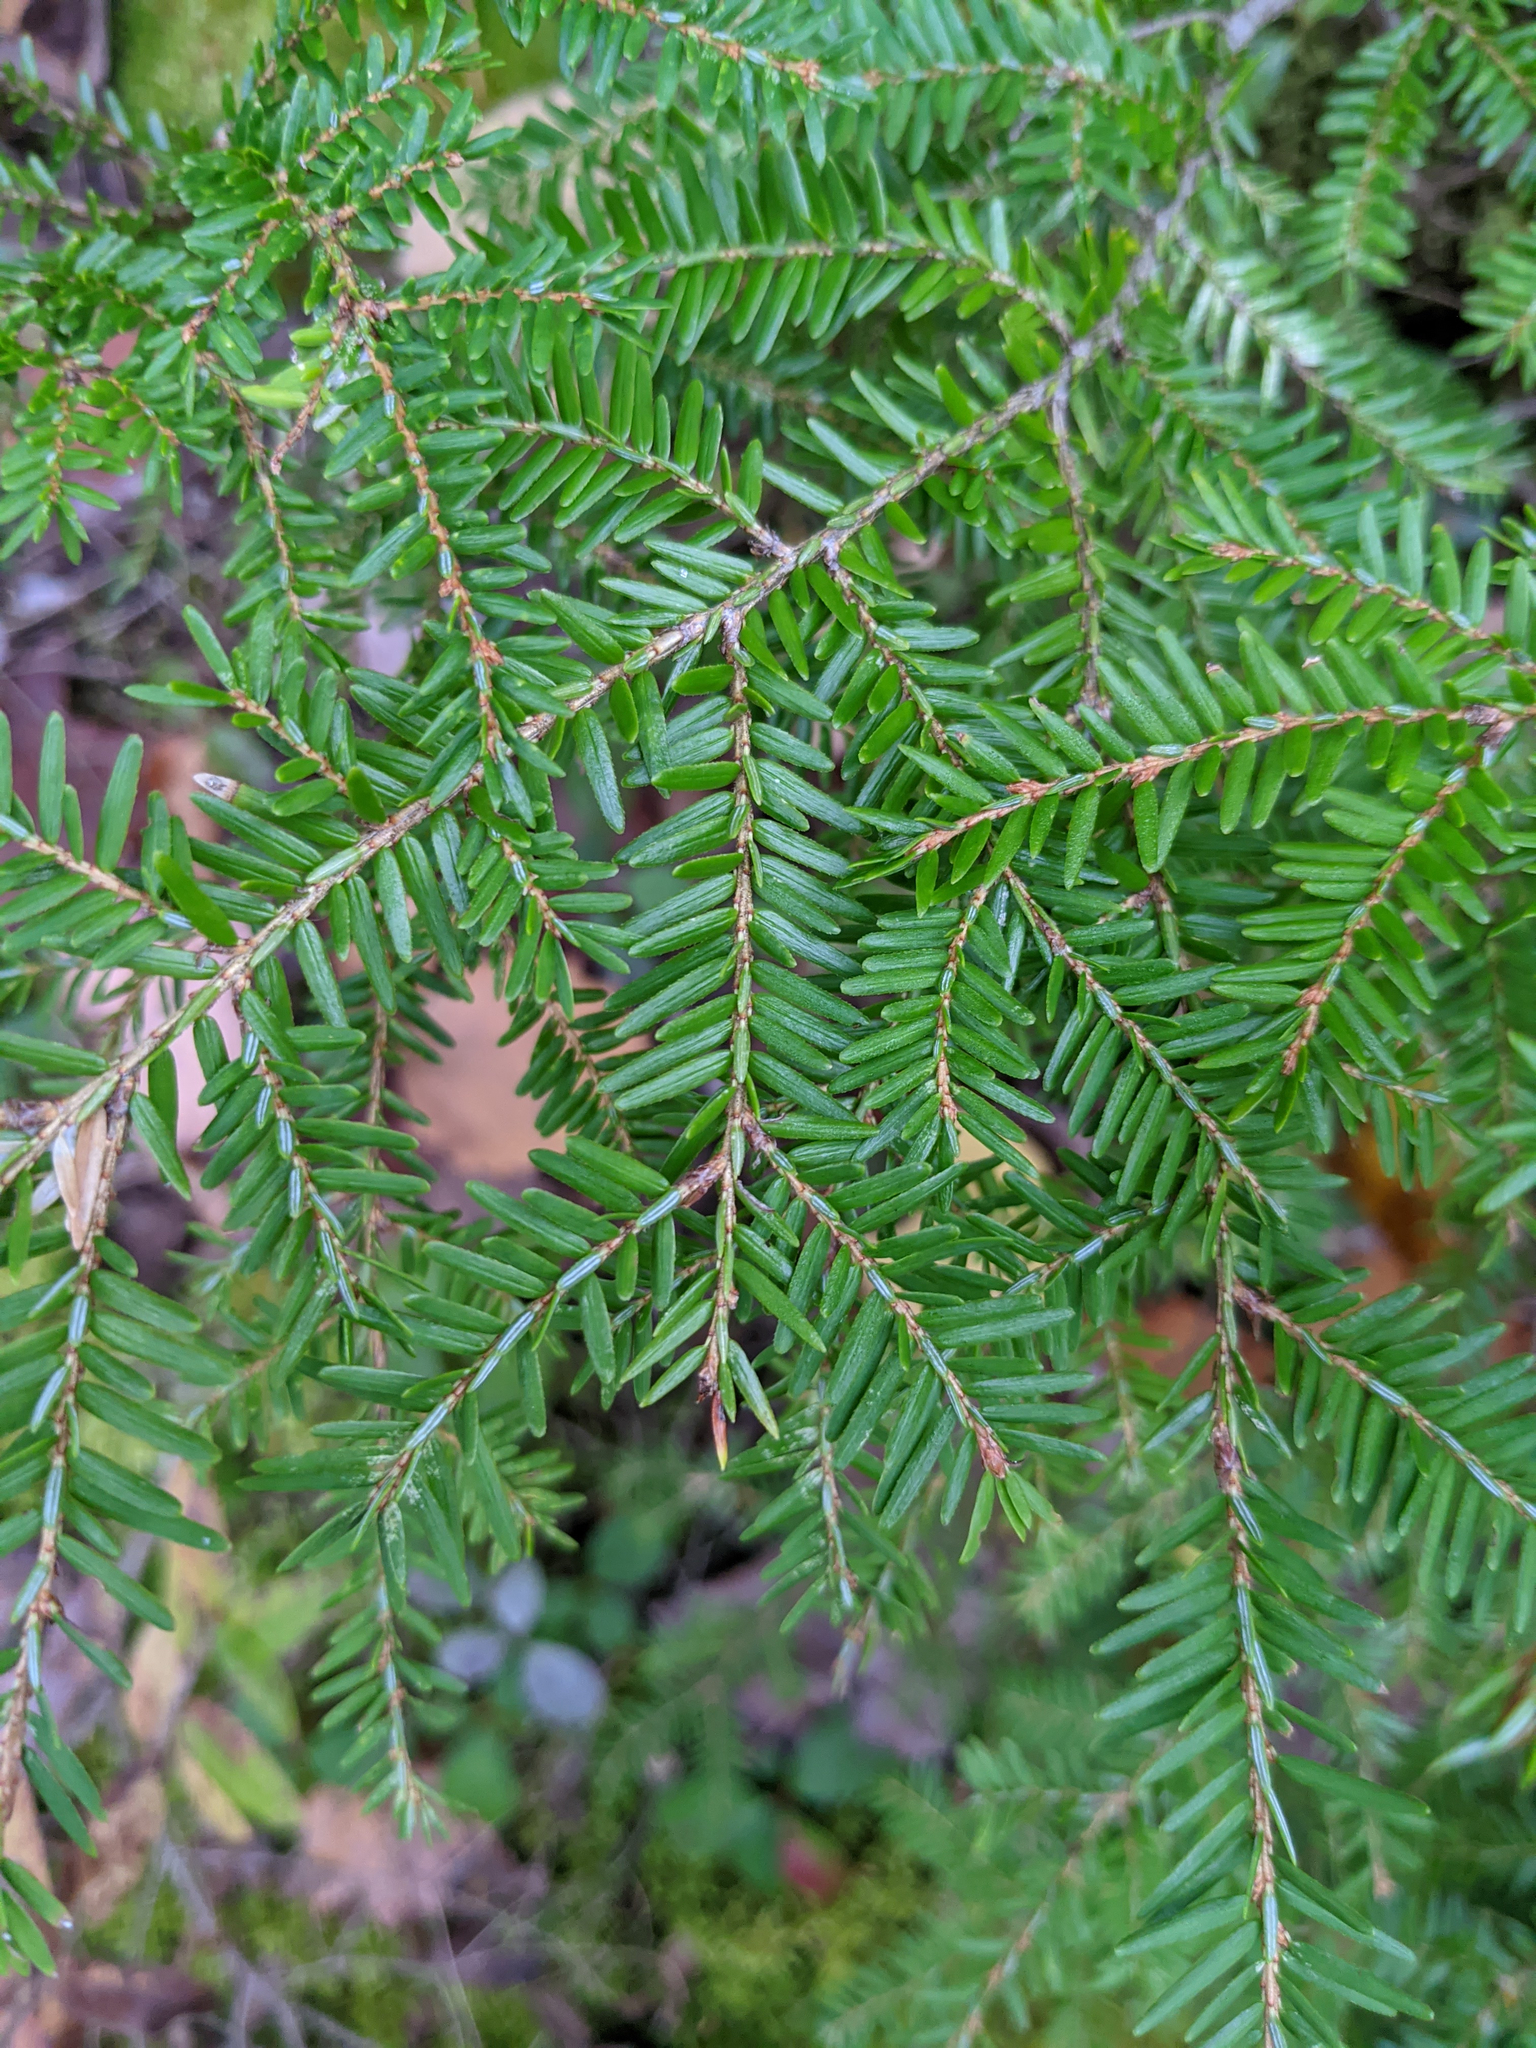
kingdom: Plantae
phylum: Tracheophyta
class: Pinopsida
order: Pinales
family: Pinaceae
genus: Tsuga
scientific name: Tsuga canadensis
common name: Eastern hemlock
